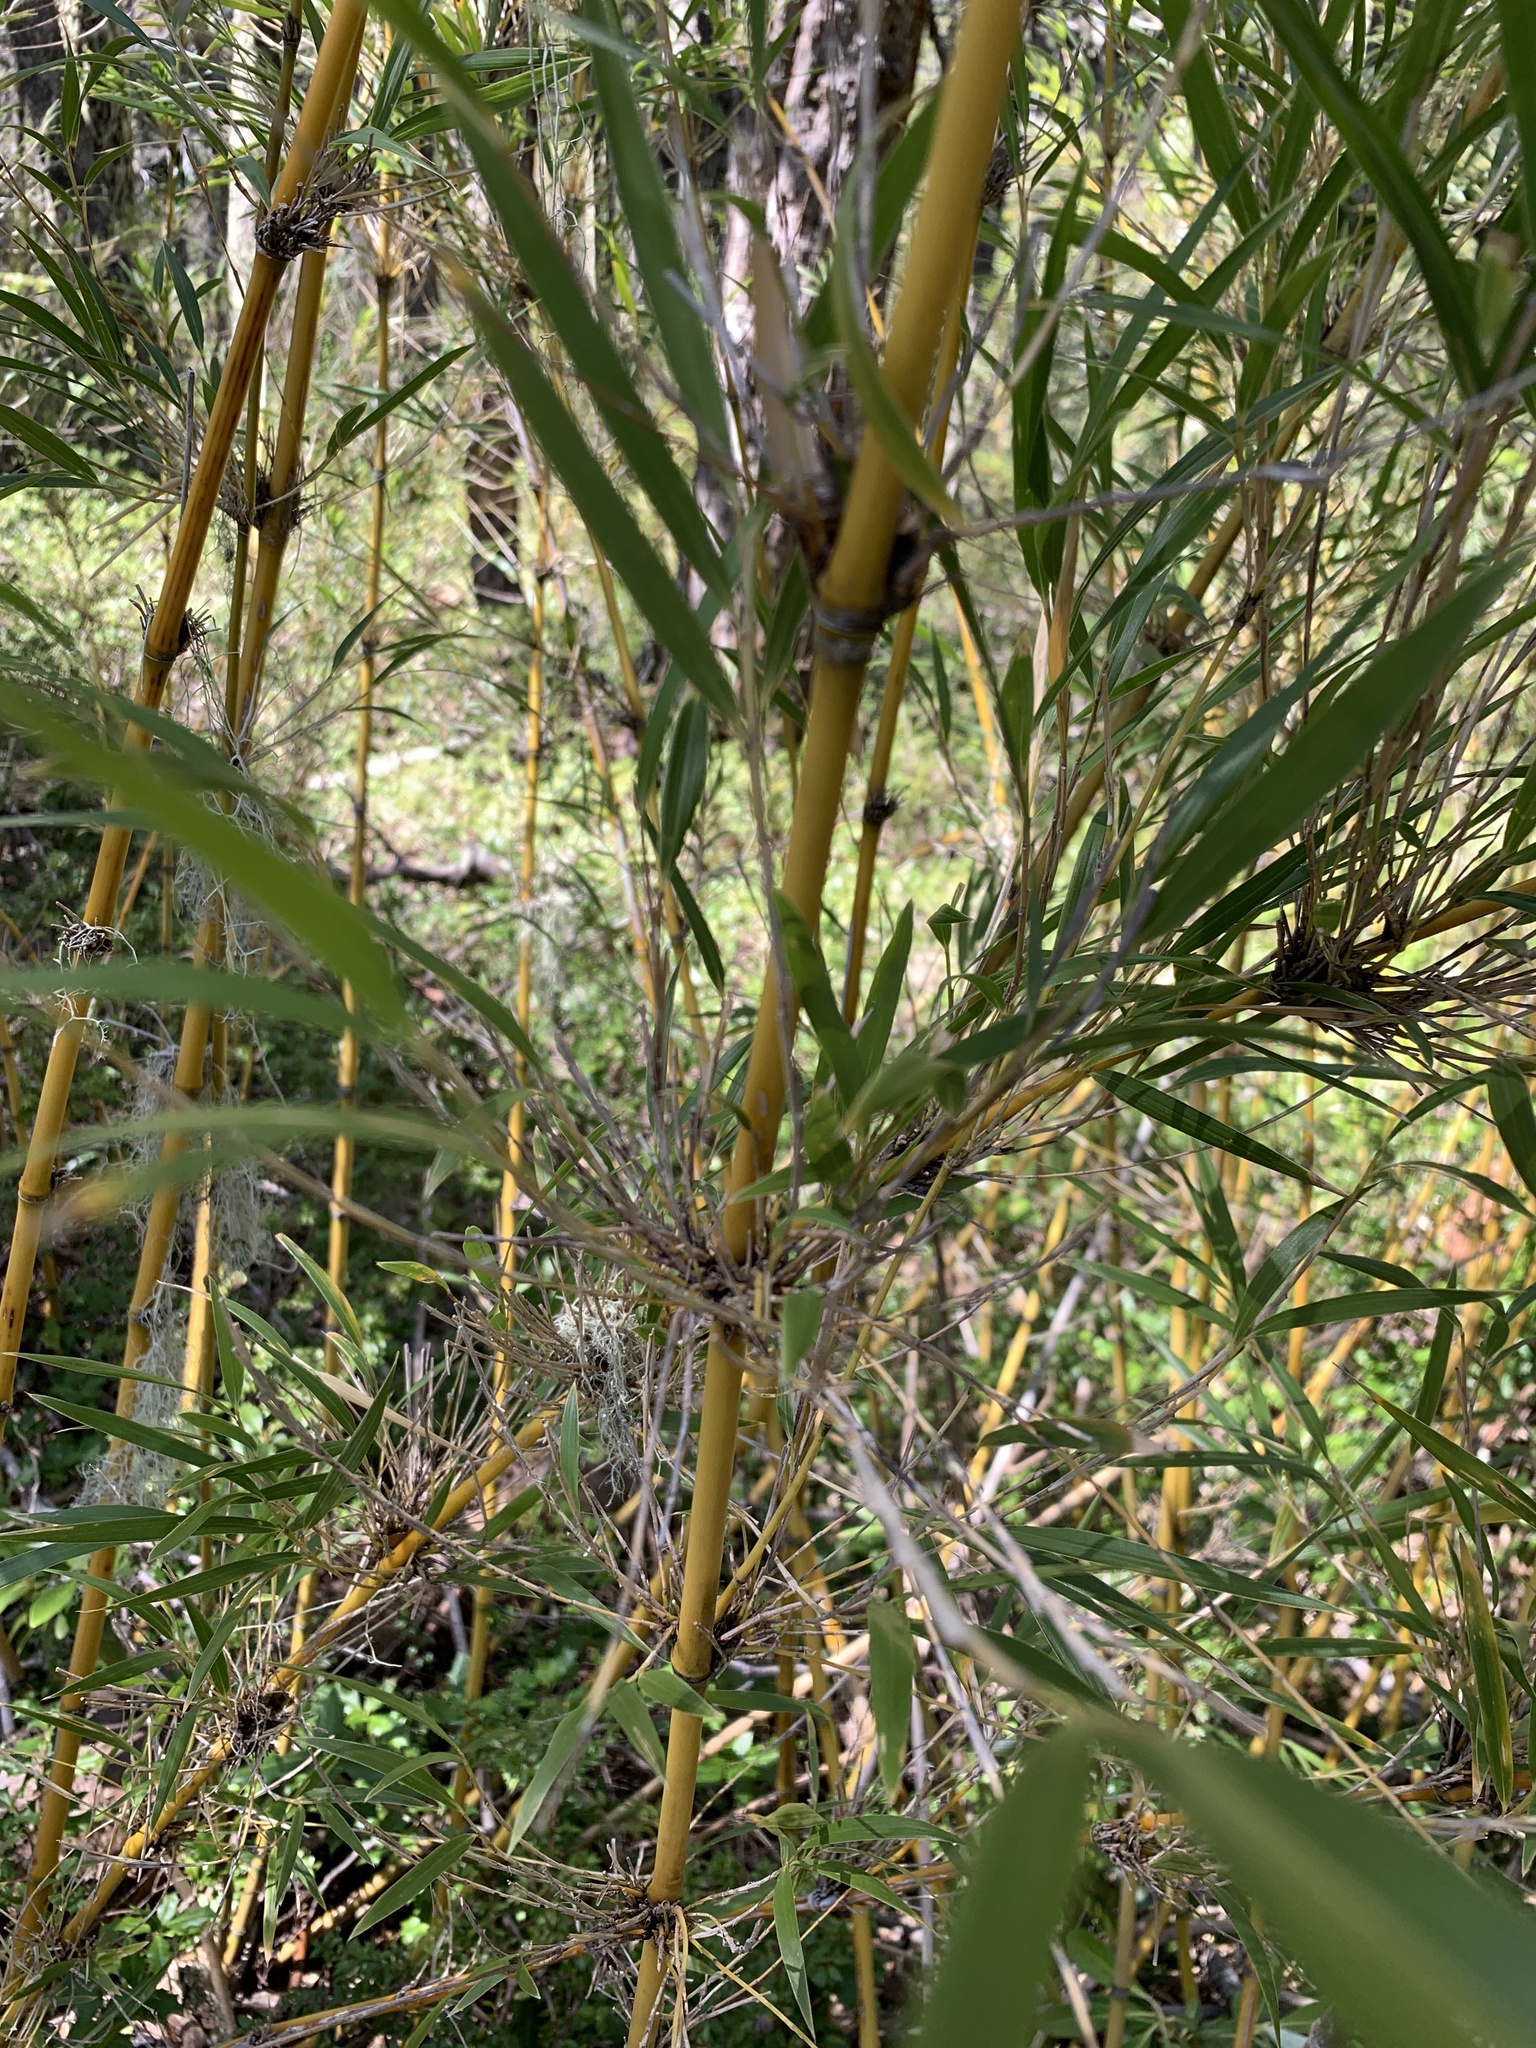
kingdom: Plantae
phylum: Tracheophyta
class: Liliopsida
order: Poales
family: Poaceae
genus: Chusquea
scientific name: Chusquea culeou
